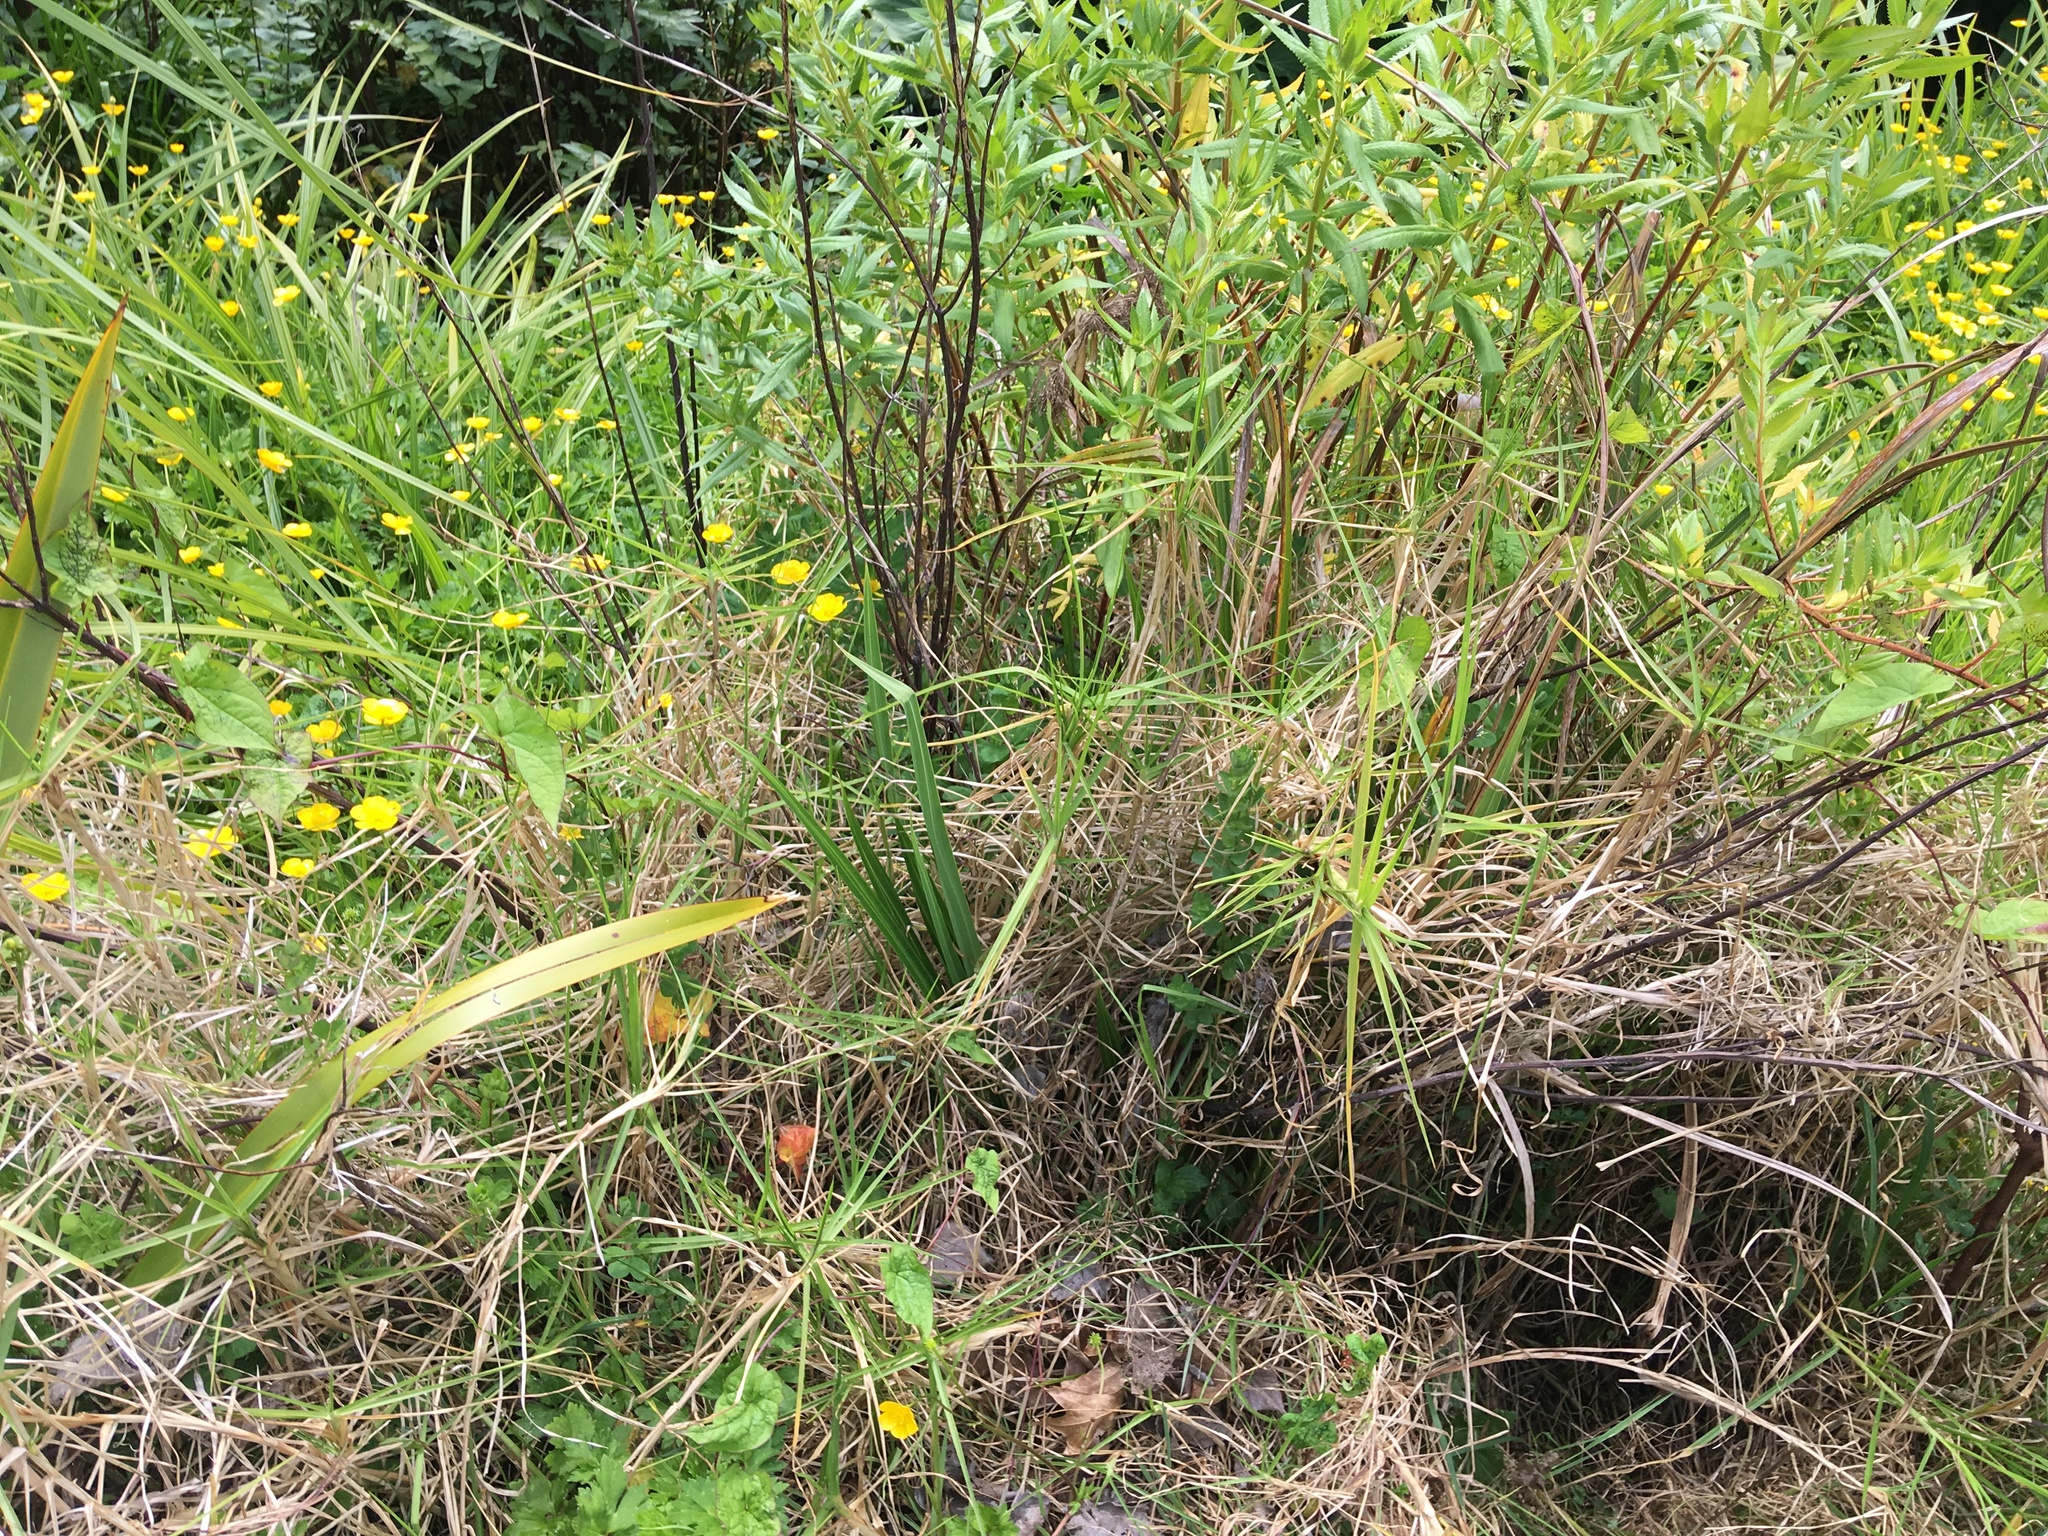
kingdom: Plantae
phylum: Tracheophyta
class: Liliopsida
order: Poales
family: Poaceae
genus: Cenchrus
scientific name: Cenchrus clandestinus
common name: Kikuyugrass
